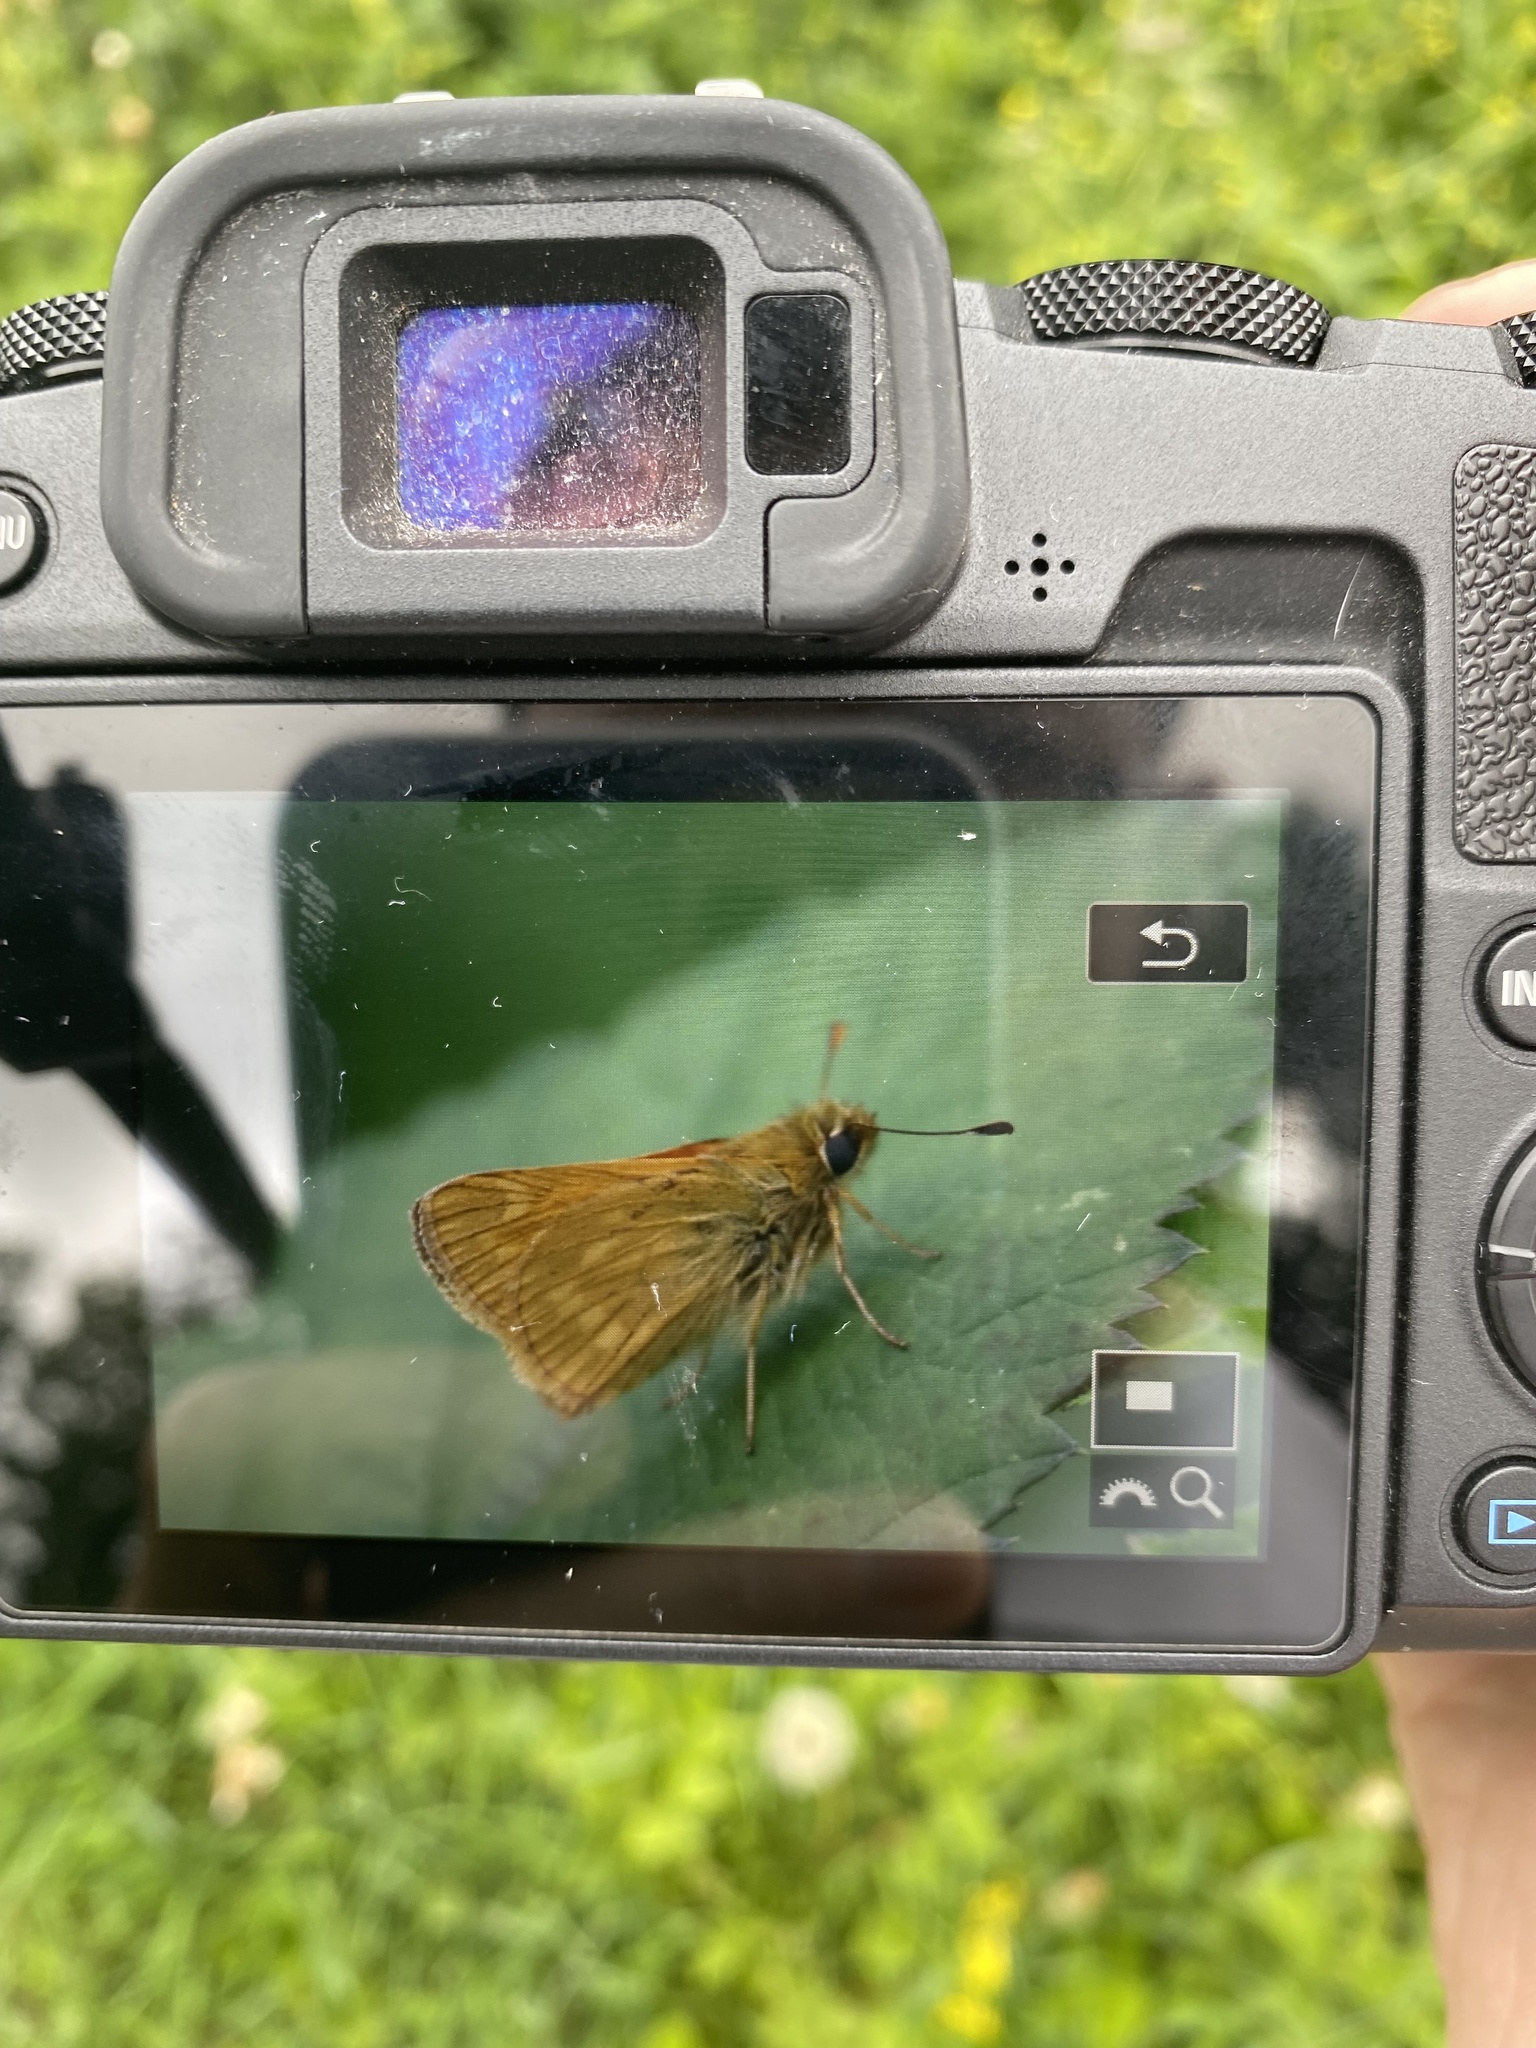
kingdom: Animalia
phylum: Arthropoda
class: Insecta
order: Lepidoptera
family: Hesperiidae
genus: Ochlodes
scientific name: Ochlodes venata
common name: Large skipper
